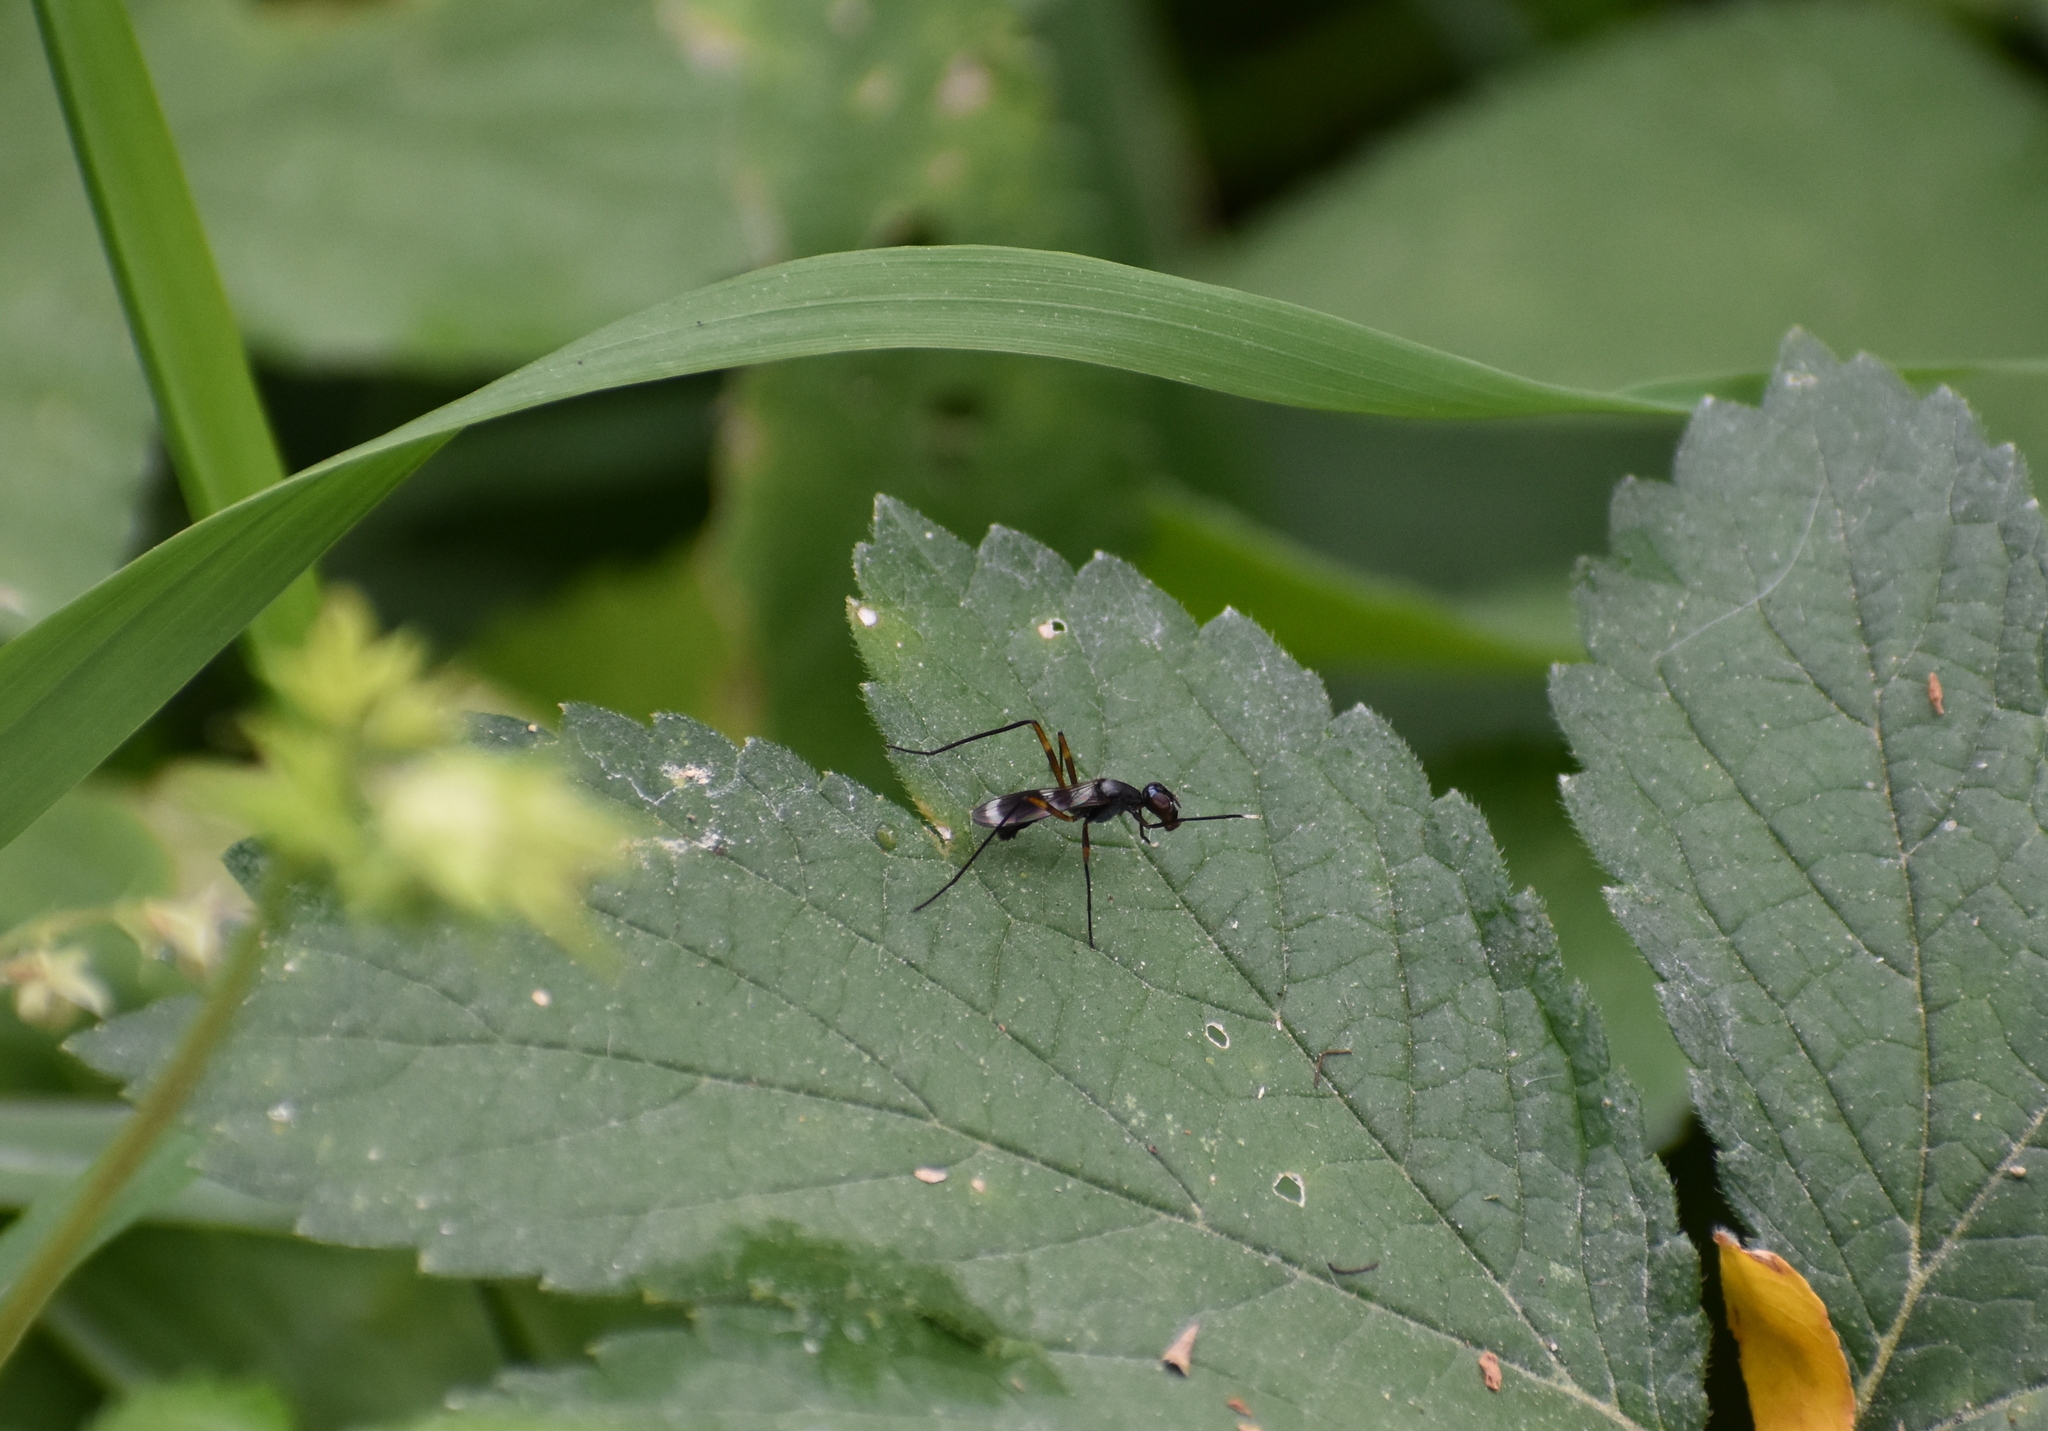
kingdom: Animalia
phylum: Arthropoda
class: Insecta
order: Diptera
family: Micropezidae
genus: Taeniaptera
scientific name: Taeniaptera trivittata
